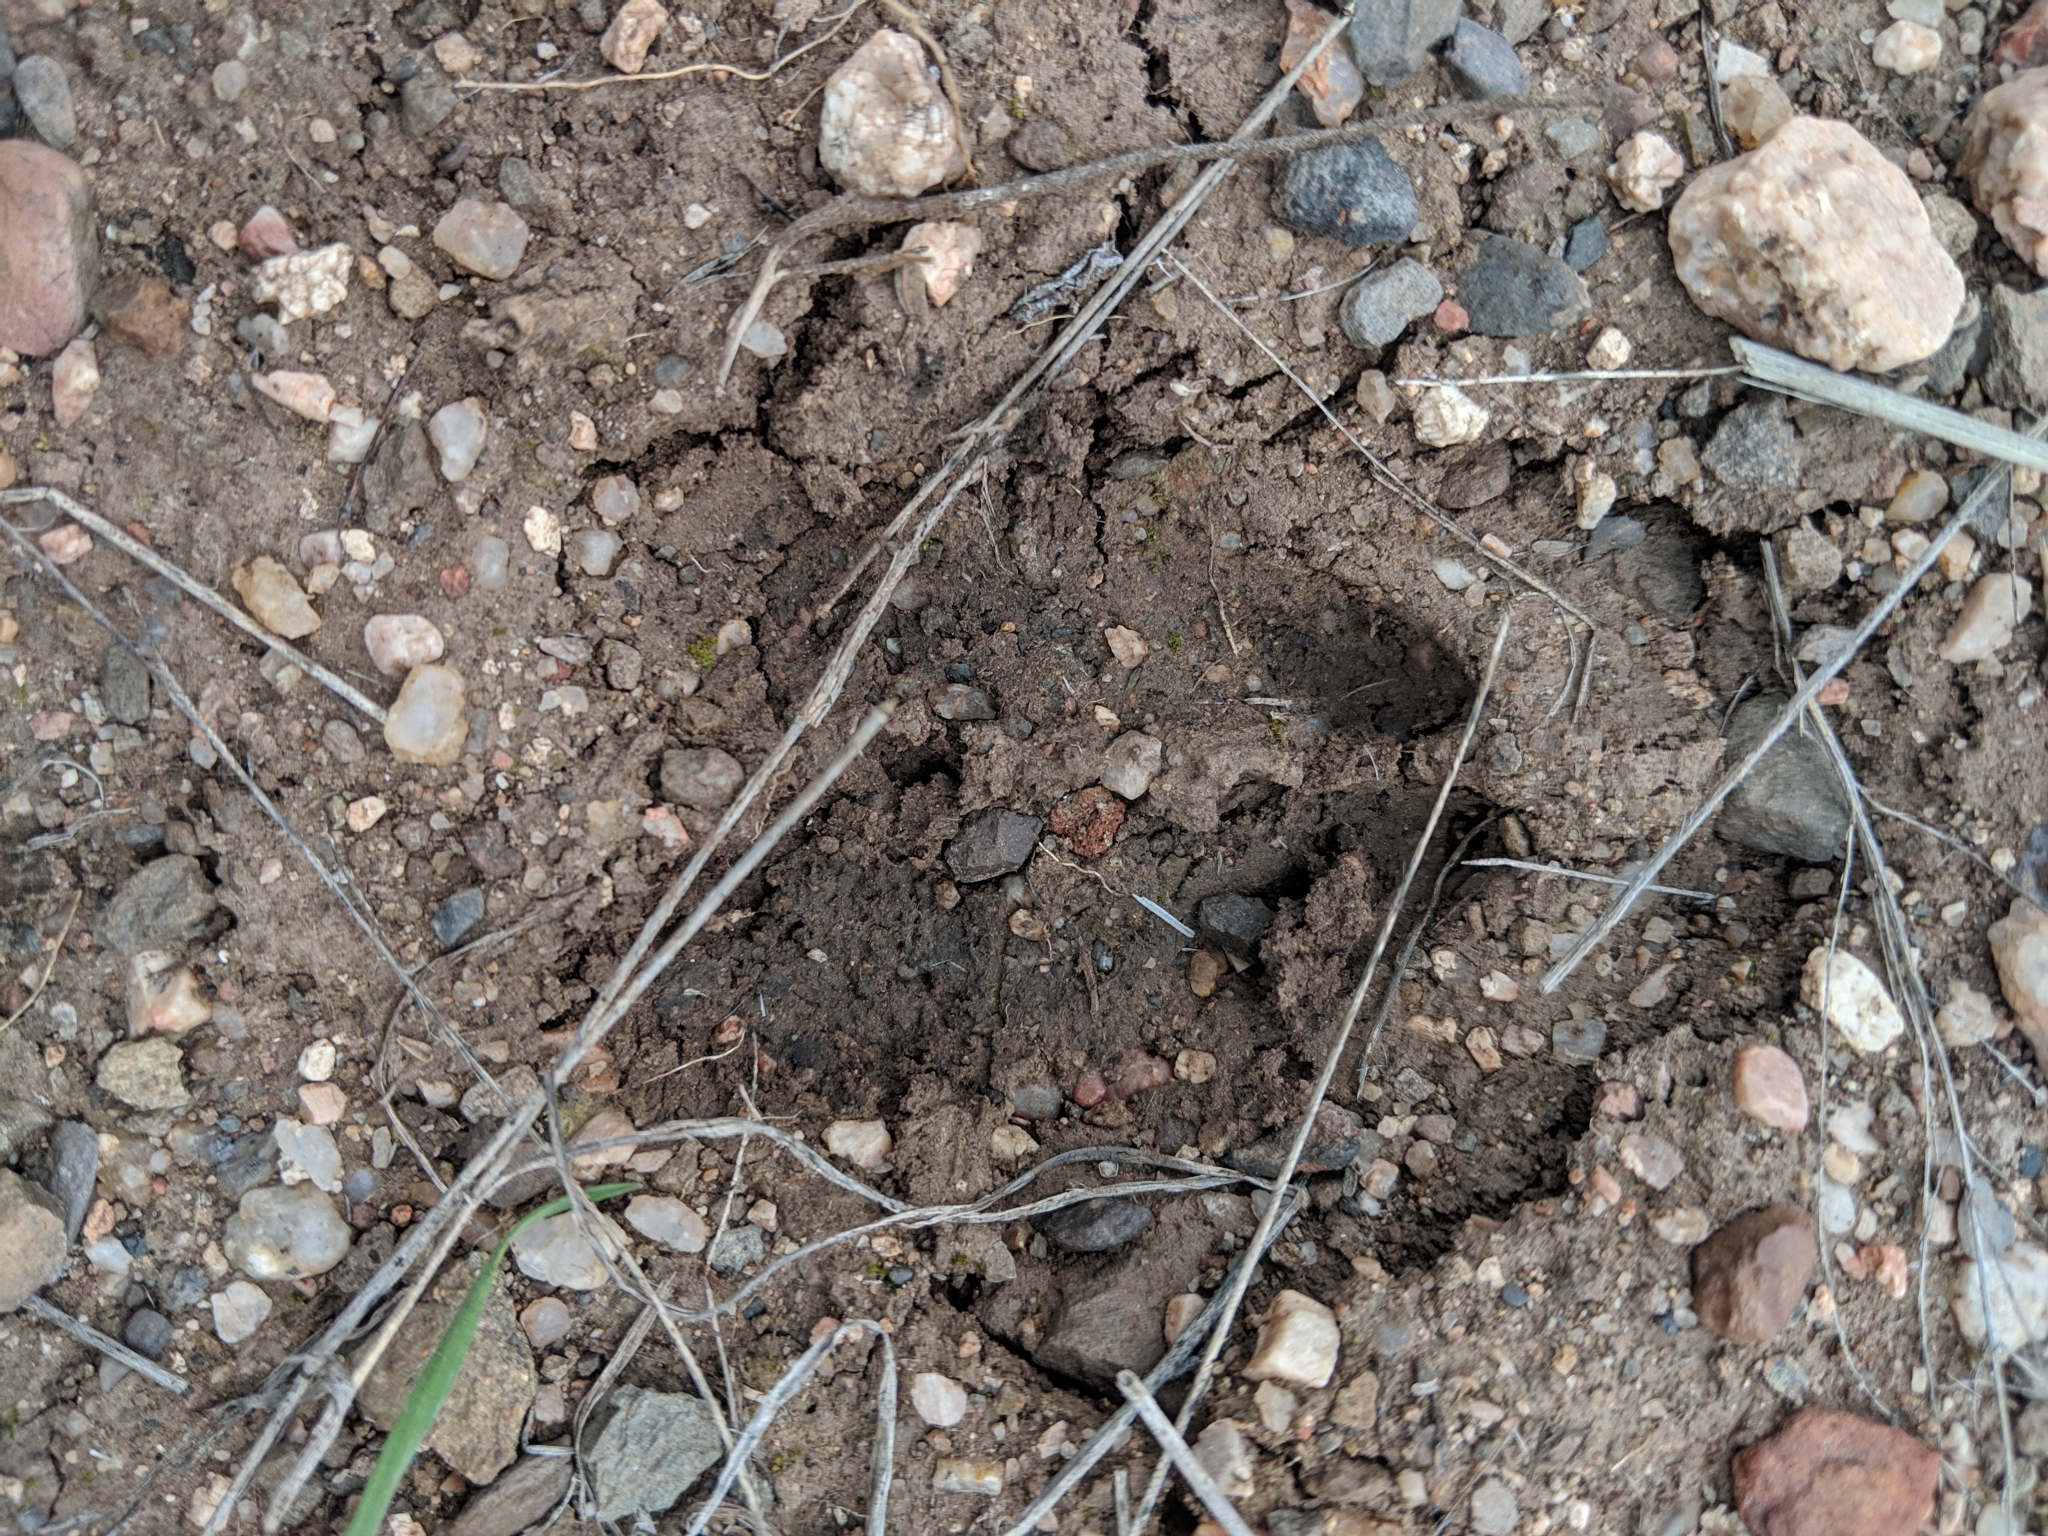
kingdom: Animalia
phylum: Chordata
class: Mammalia
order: Artiodactyla
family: Tayassuidae
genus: Pecari
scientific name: Pecari tajacu
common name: Collared peccary
